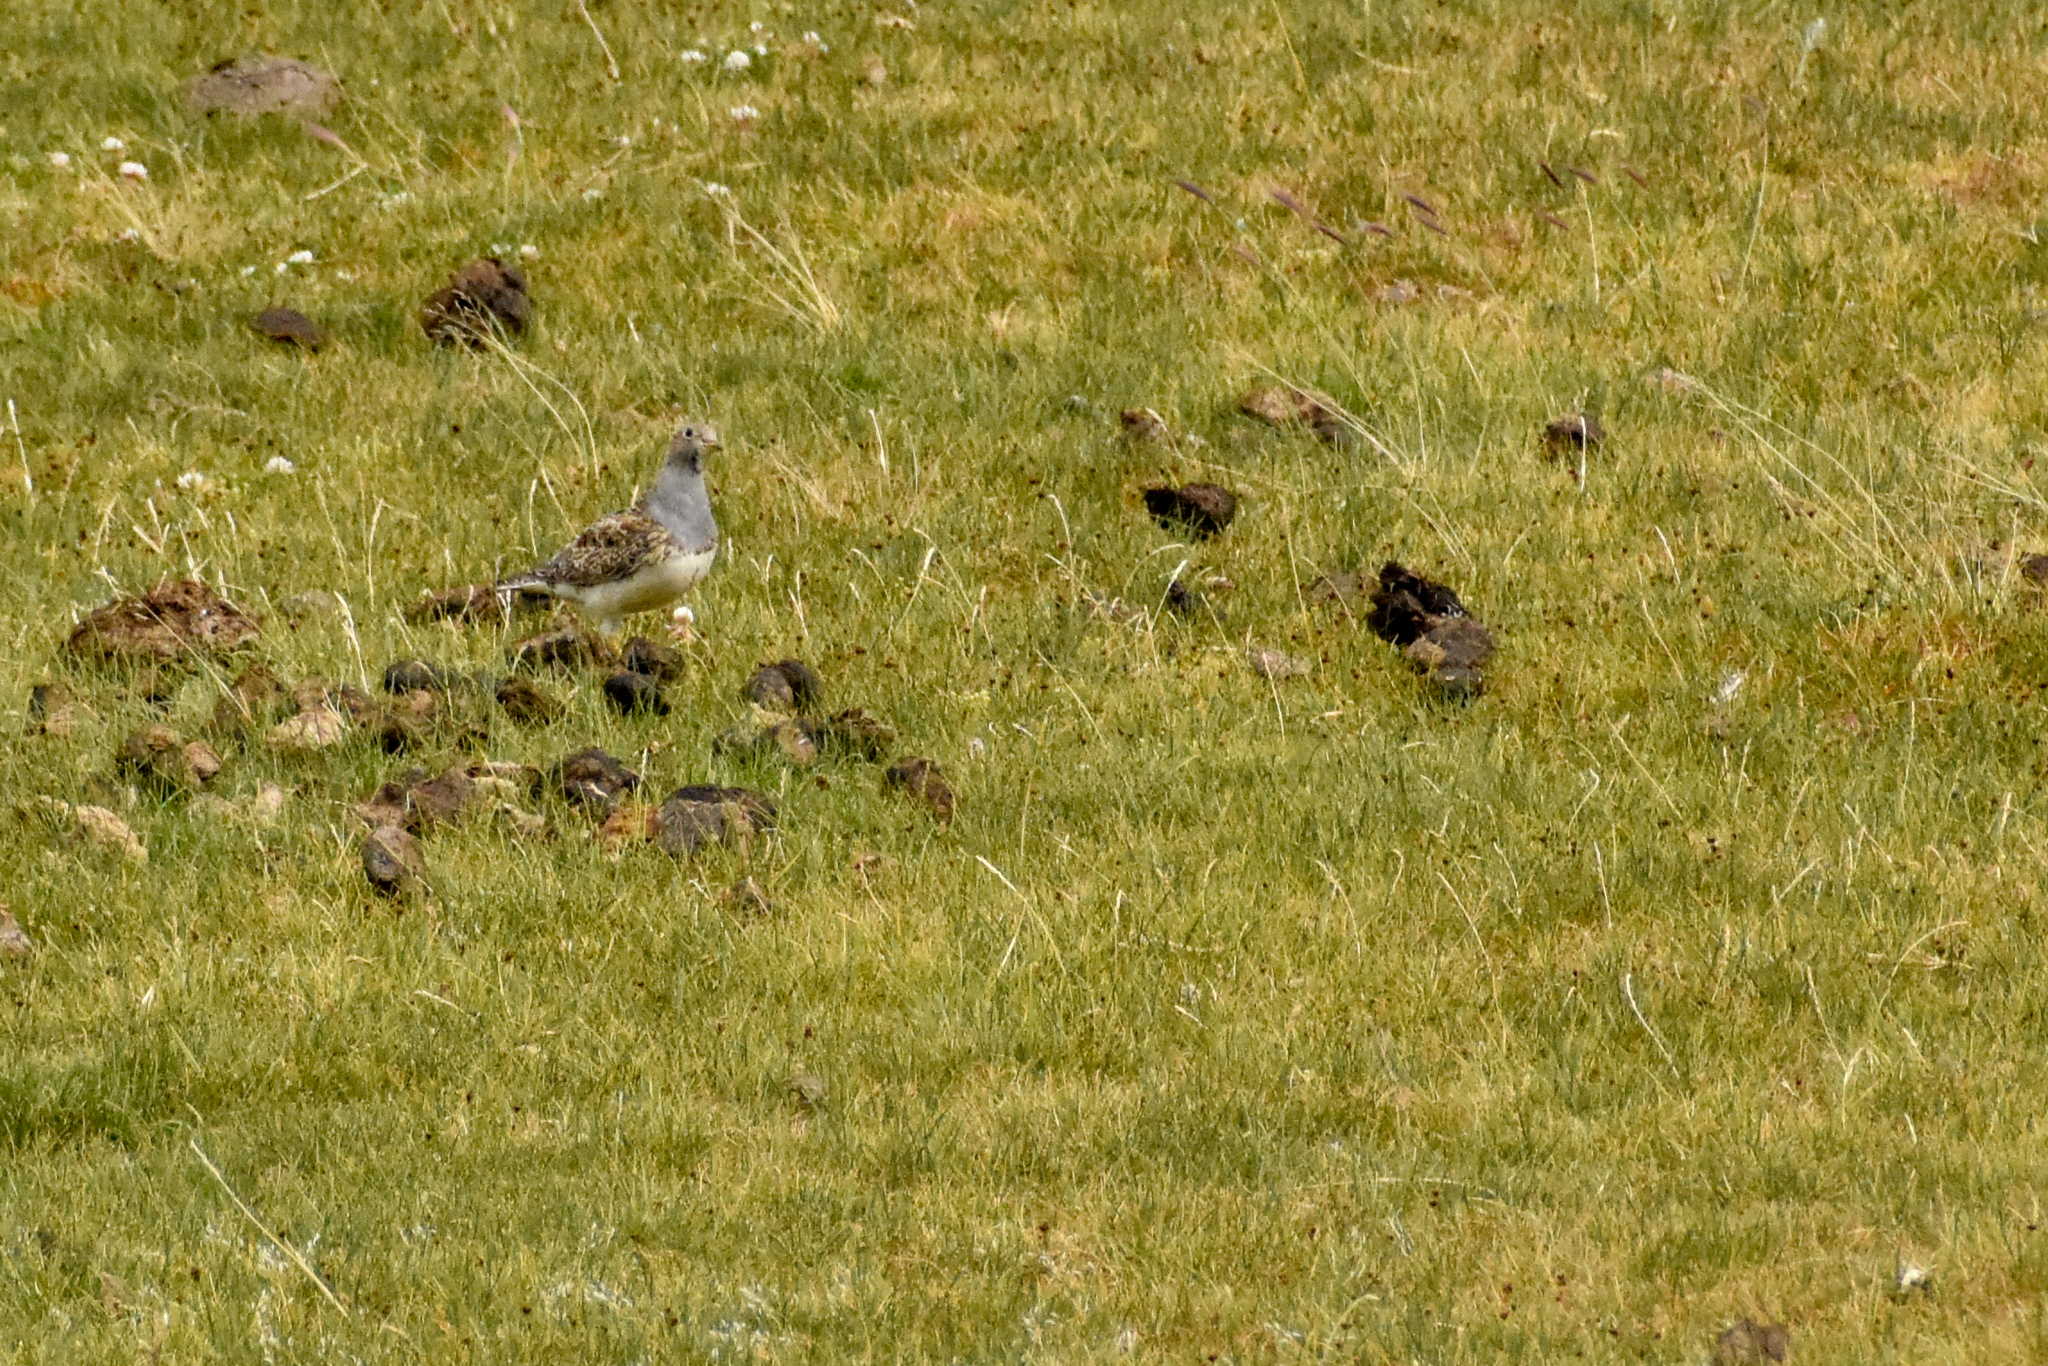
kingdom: Animalia
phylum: Chordata
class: Aves
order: Charadriiformes
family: Thinocoridae
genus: Thinocorus
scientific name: Thinocorus orbignyianus
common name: Grey-breasted seedsnipe
